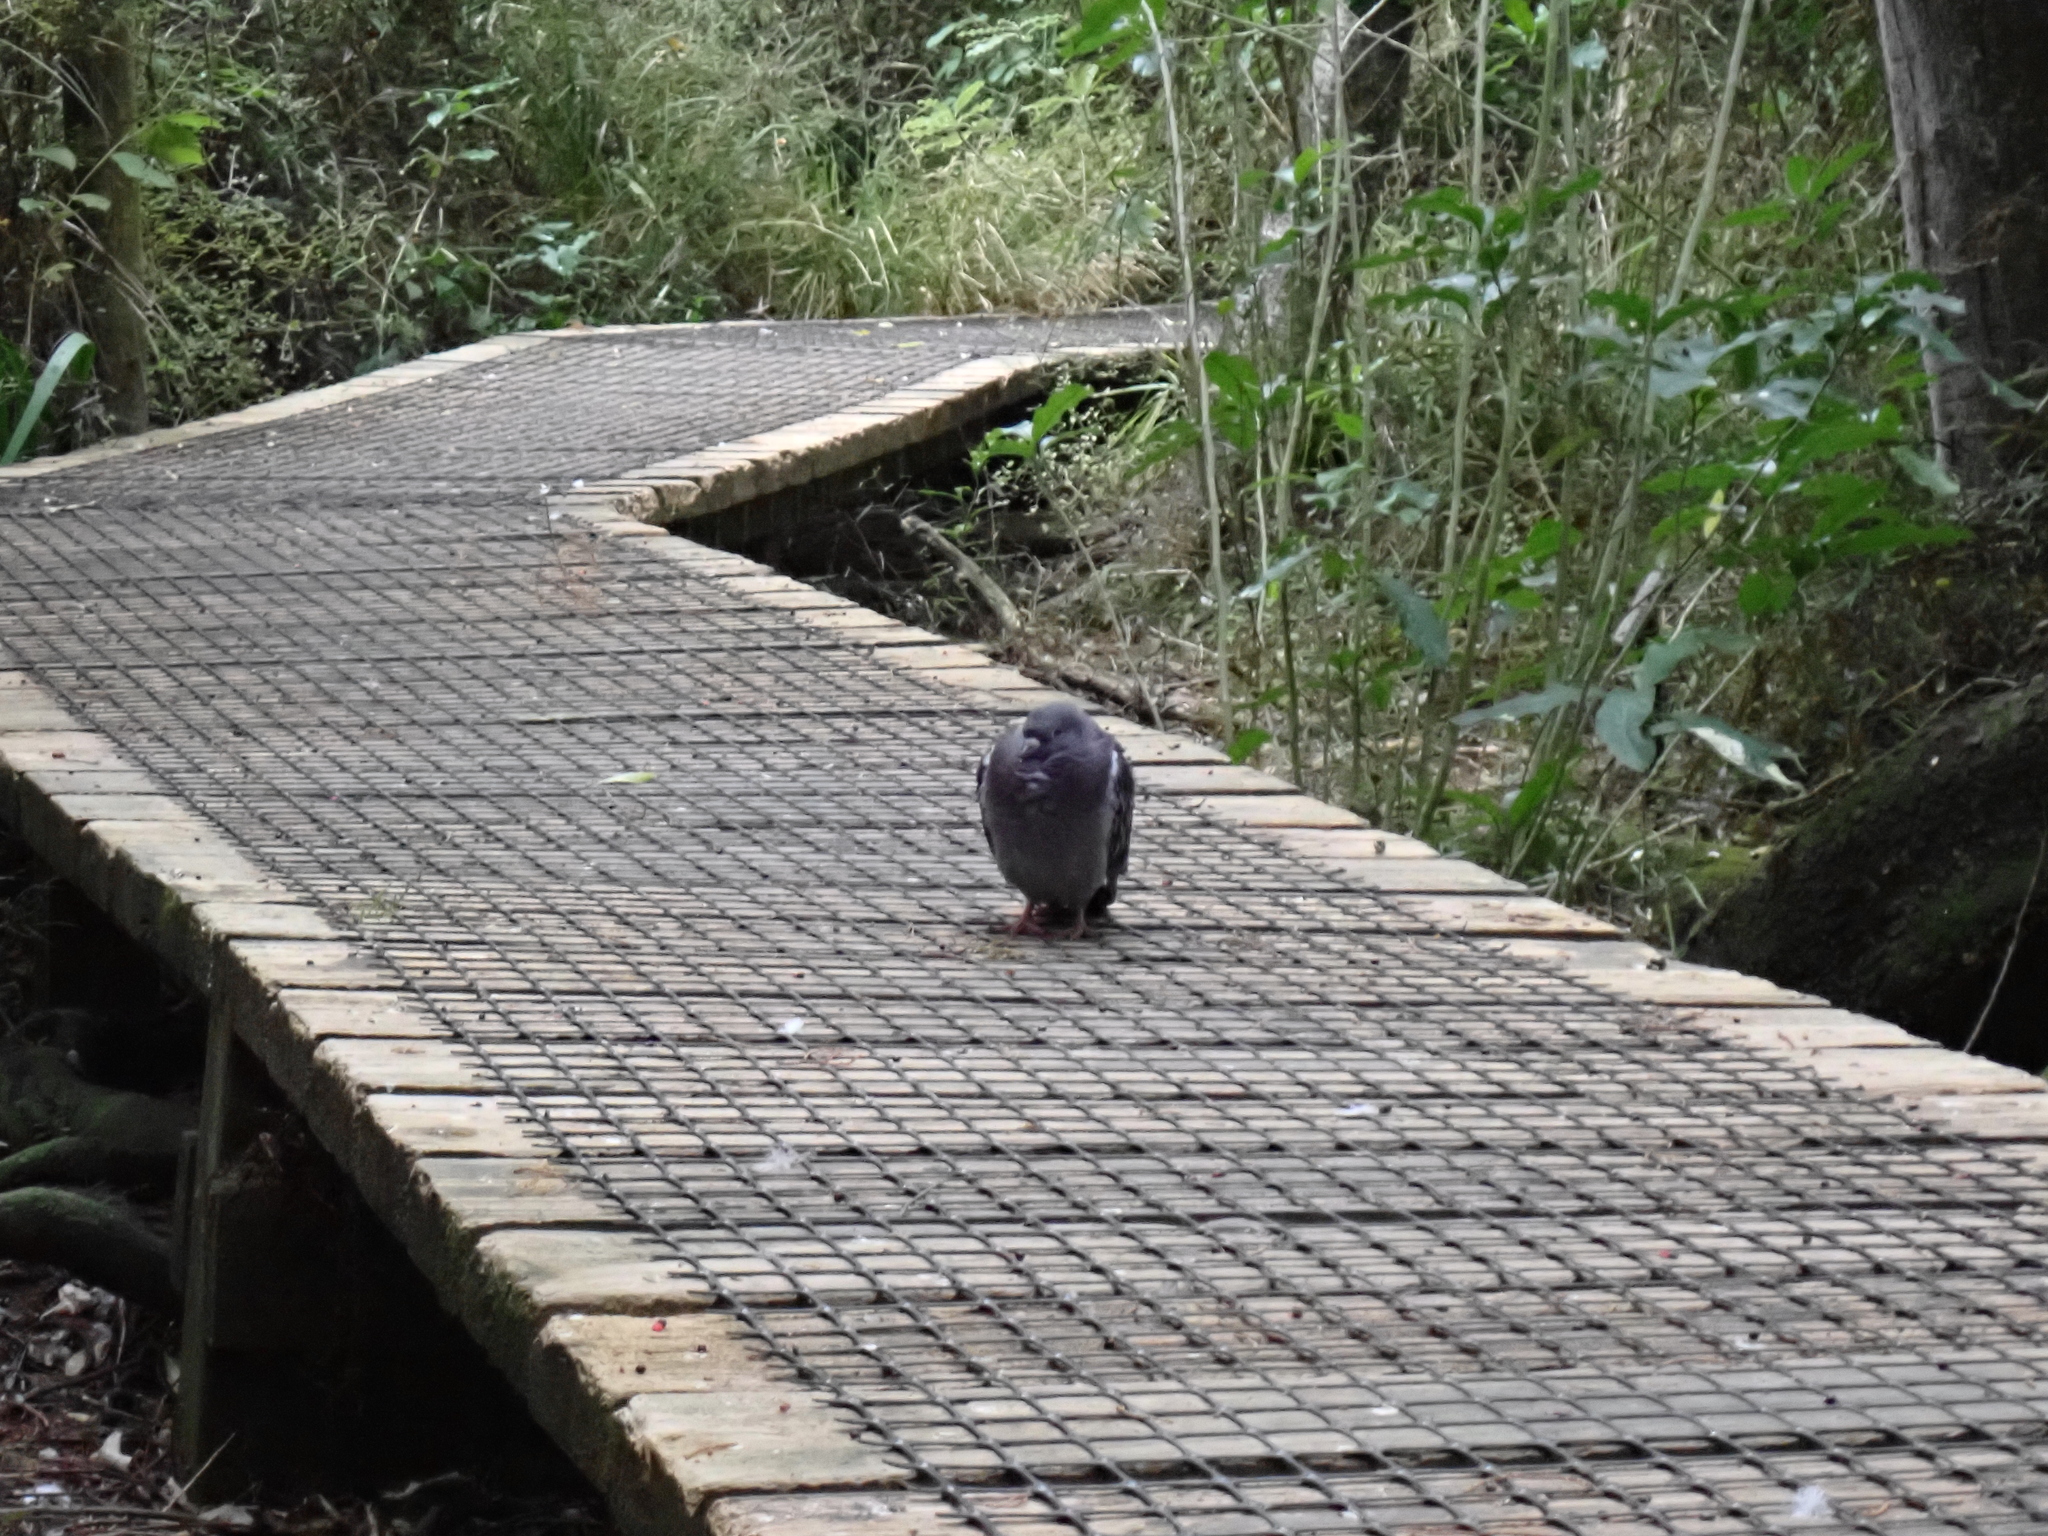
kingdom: Animalia
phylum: Chordata
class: Aves
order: Columbiformes
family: Columbidae
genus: Columba
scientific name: Columba livia
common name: Rock pigeon
